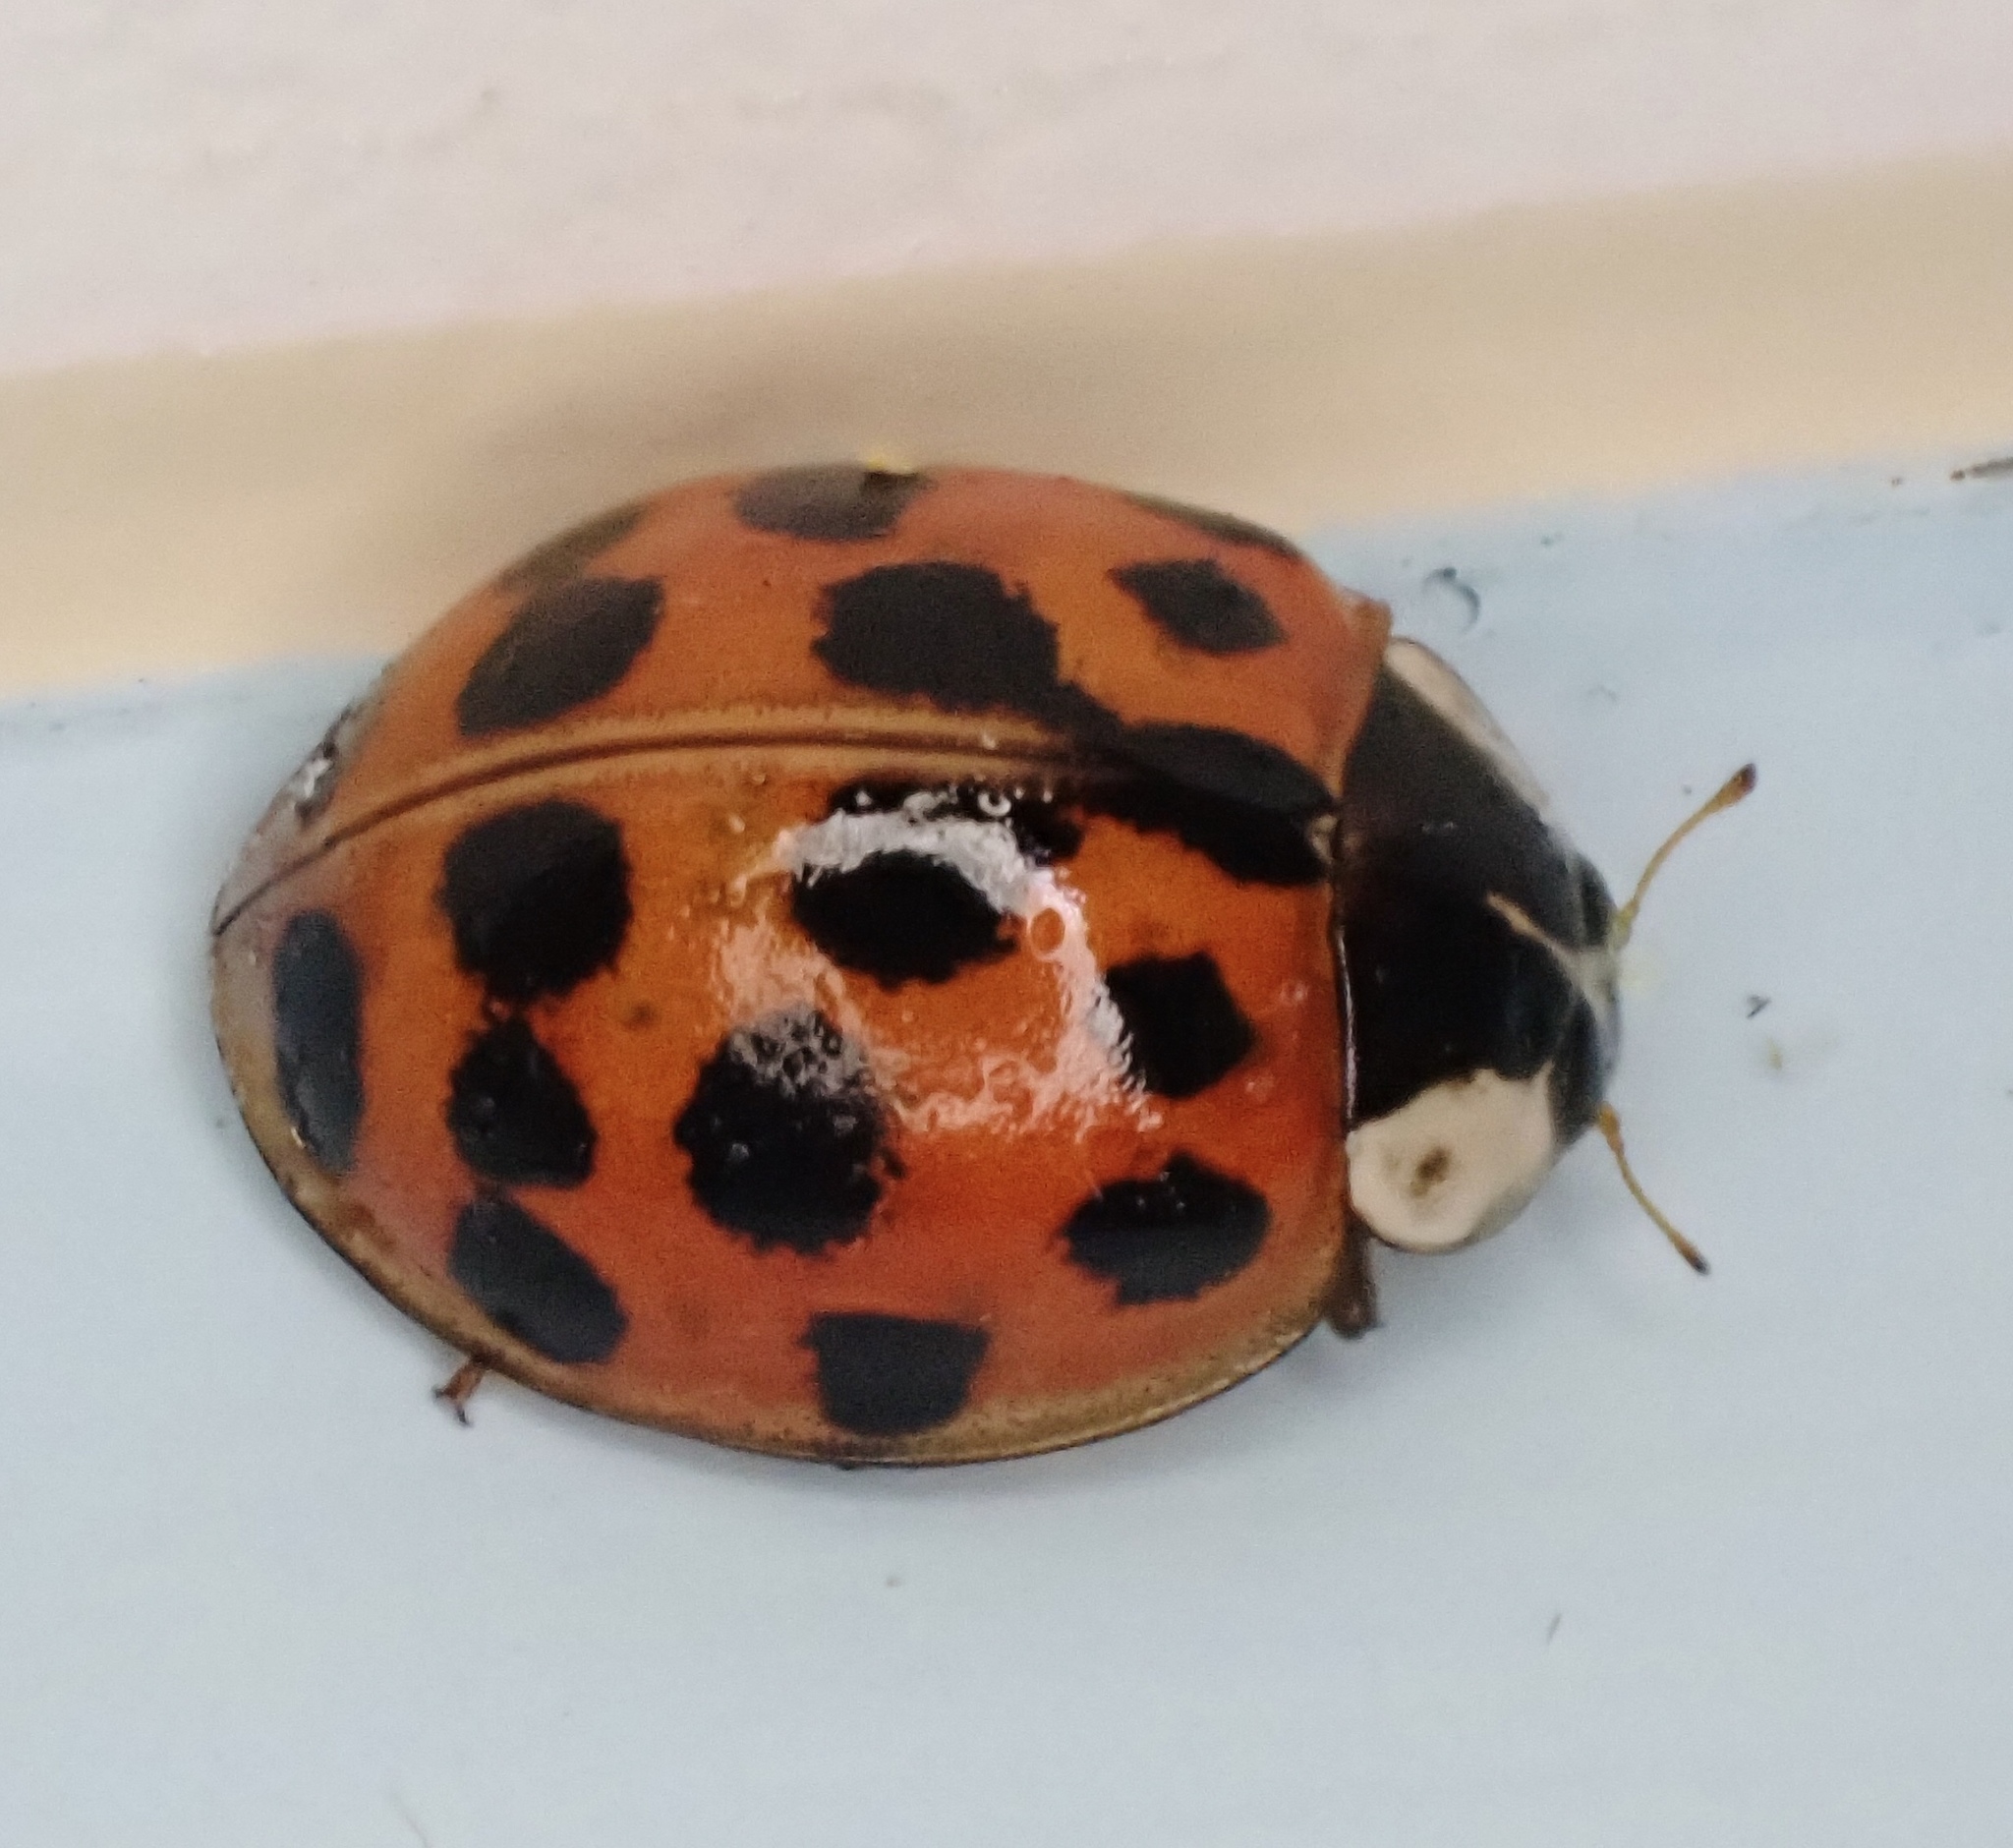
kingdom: Animalia
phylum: Arthropoda
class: Insecta
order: Coleoptera
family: Coccinellidae
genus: Harmonia
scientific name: Harmonia axyridis
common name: Harlequin ladybird
